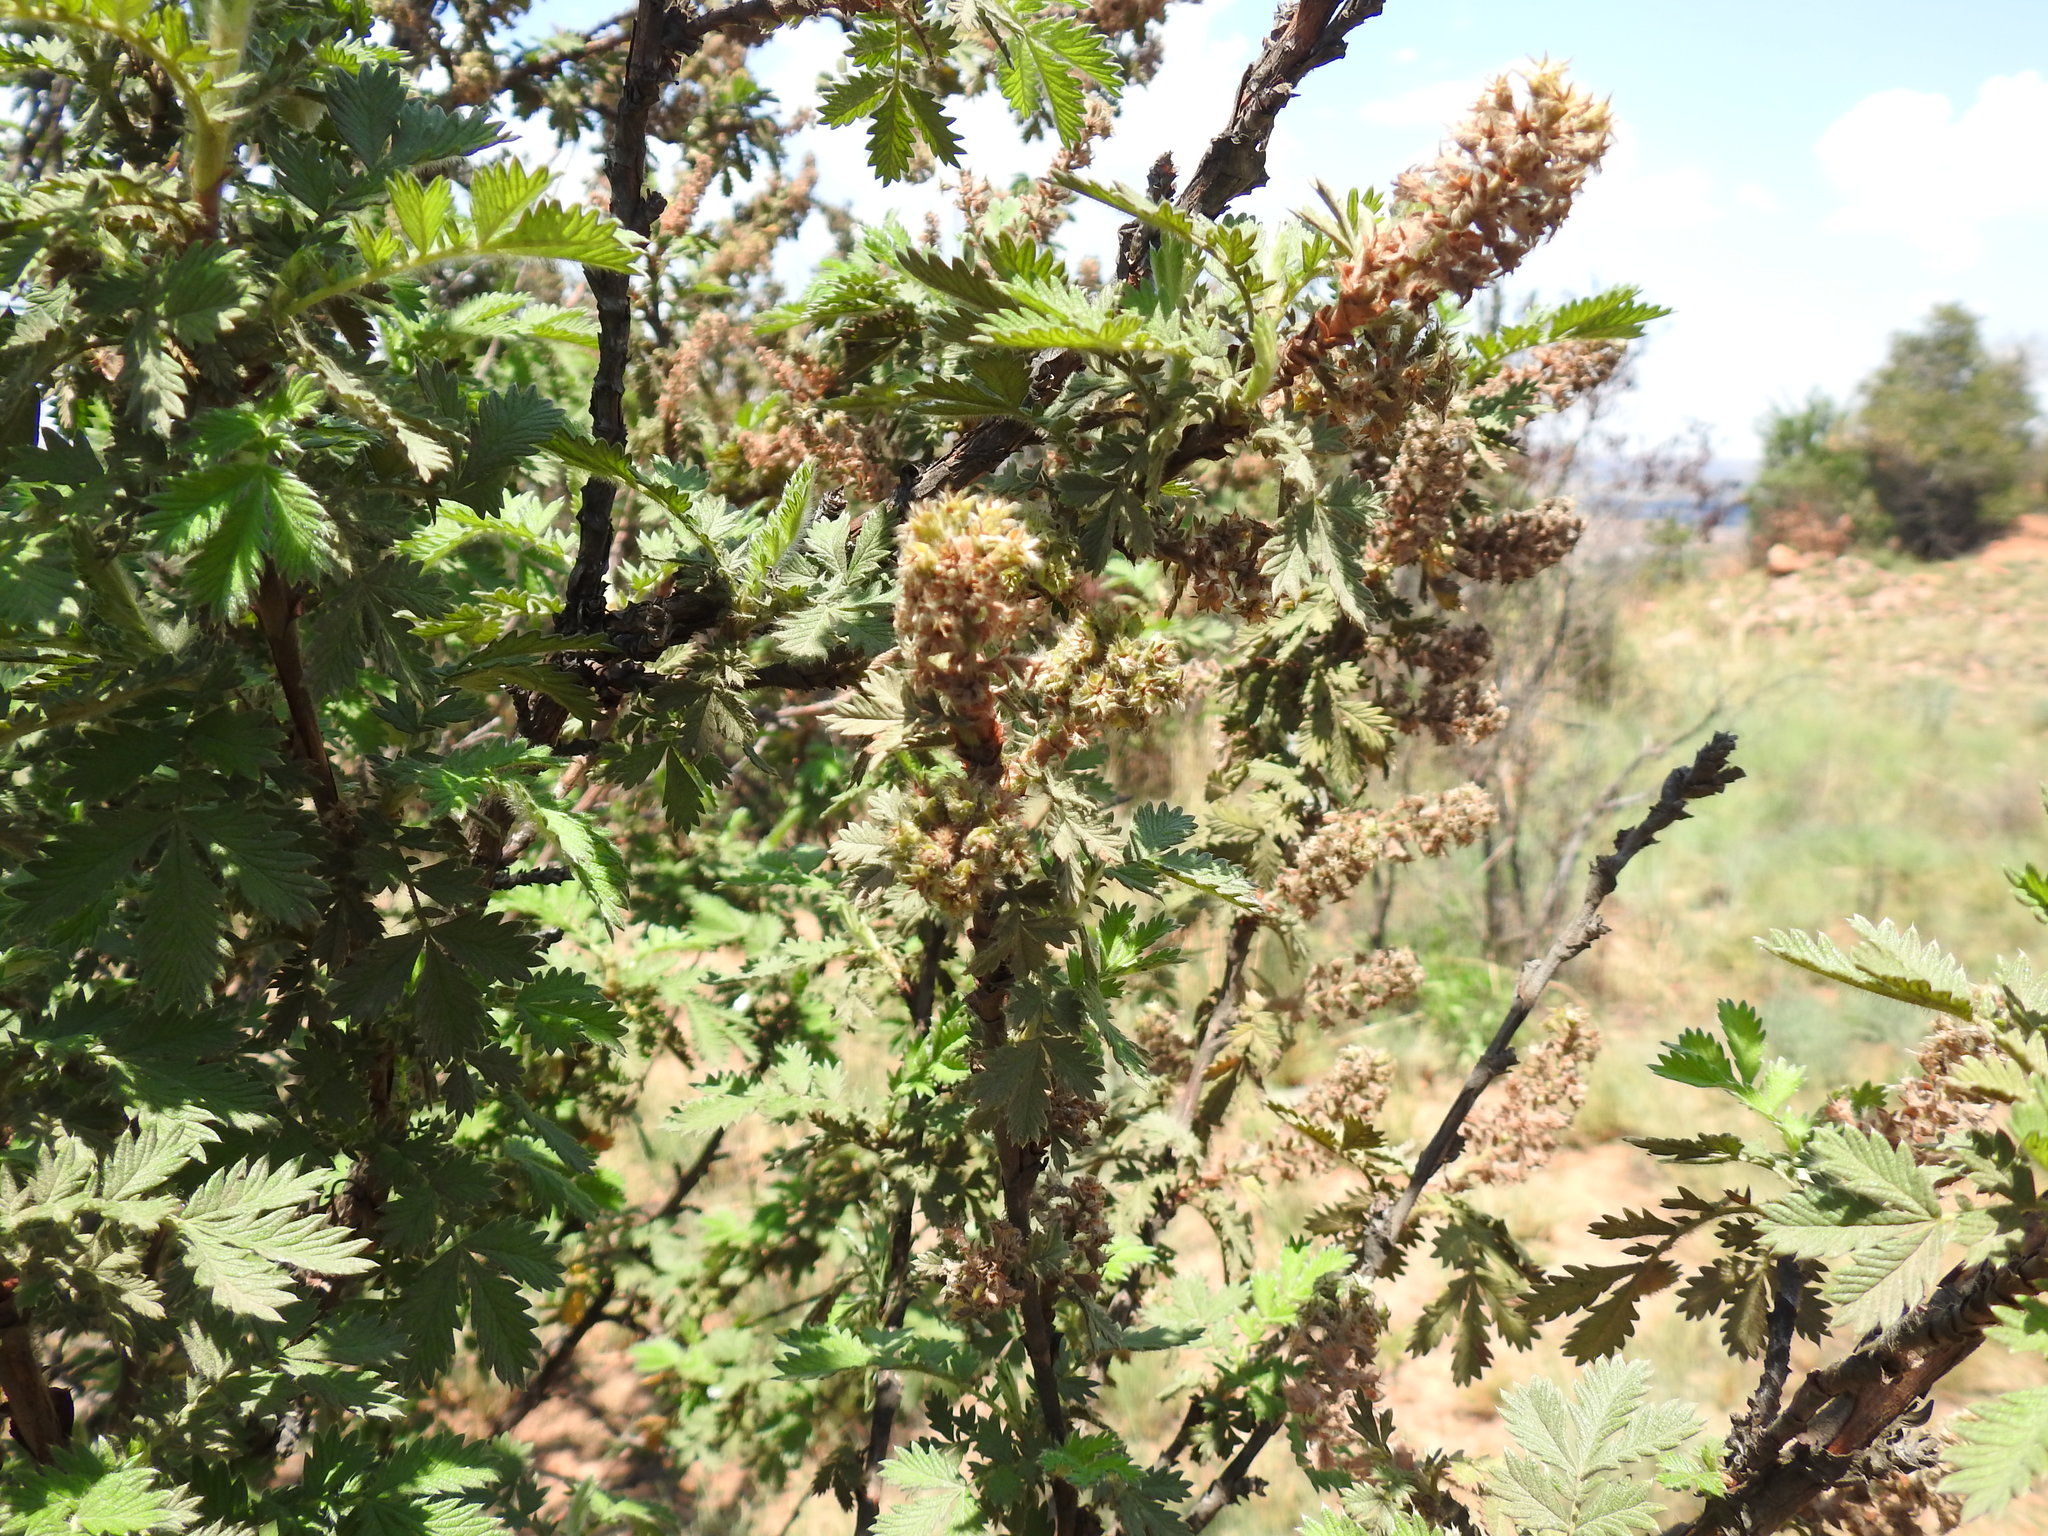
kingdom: Plantae
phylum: Tracheophyta
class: Magnoliopsida
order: Rosales
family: Rosaceae
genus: Leucosidea
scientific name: Leucosidea sericea
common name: Oldwood
